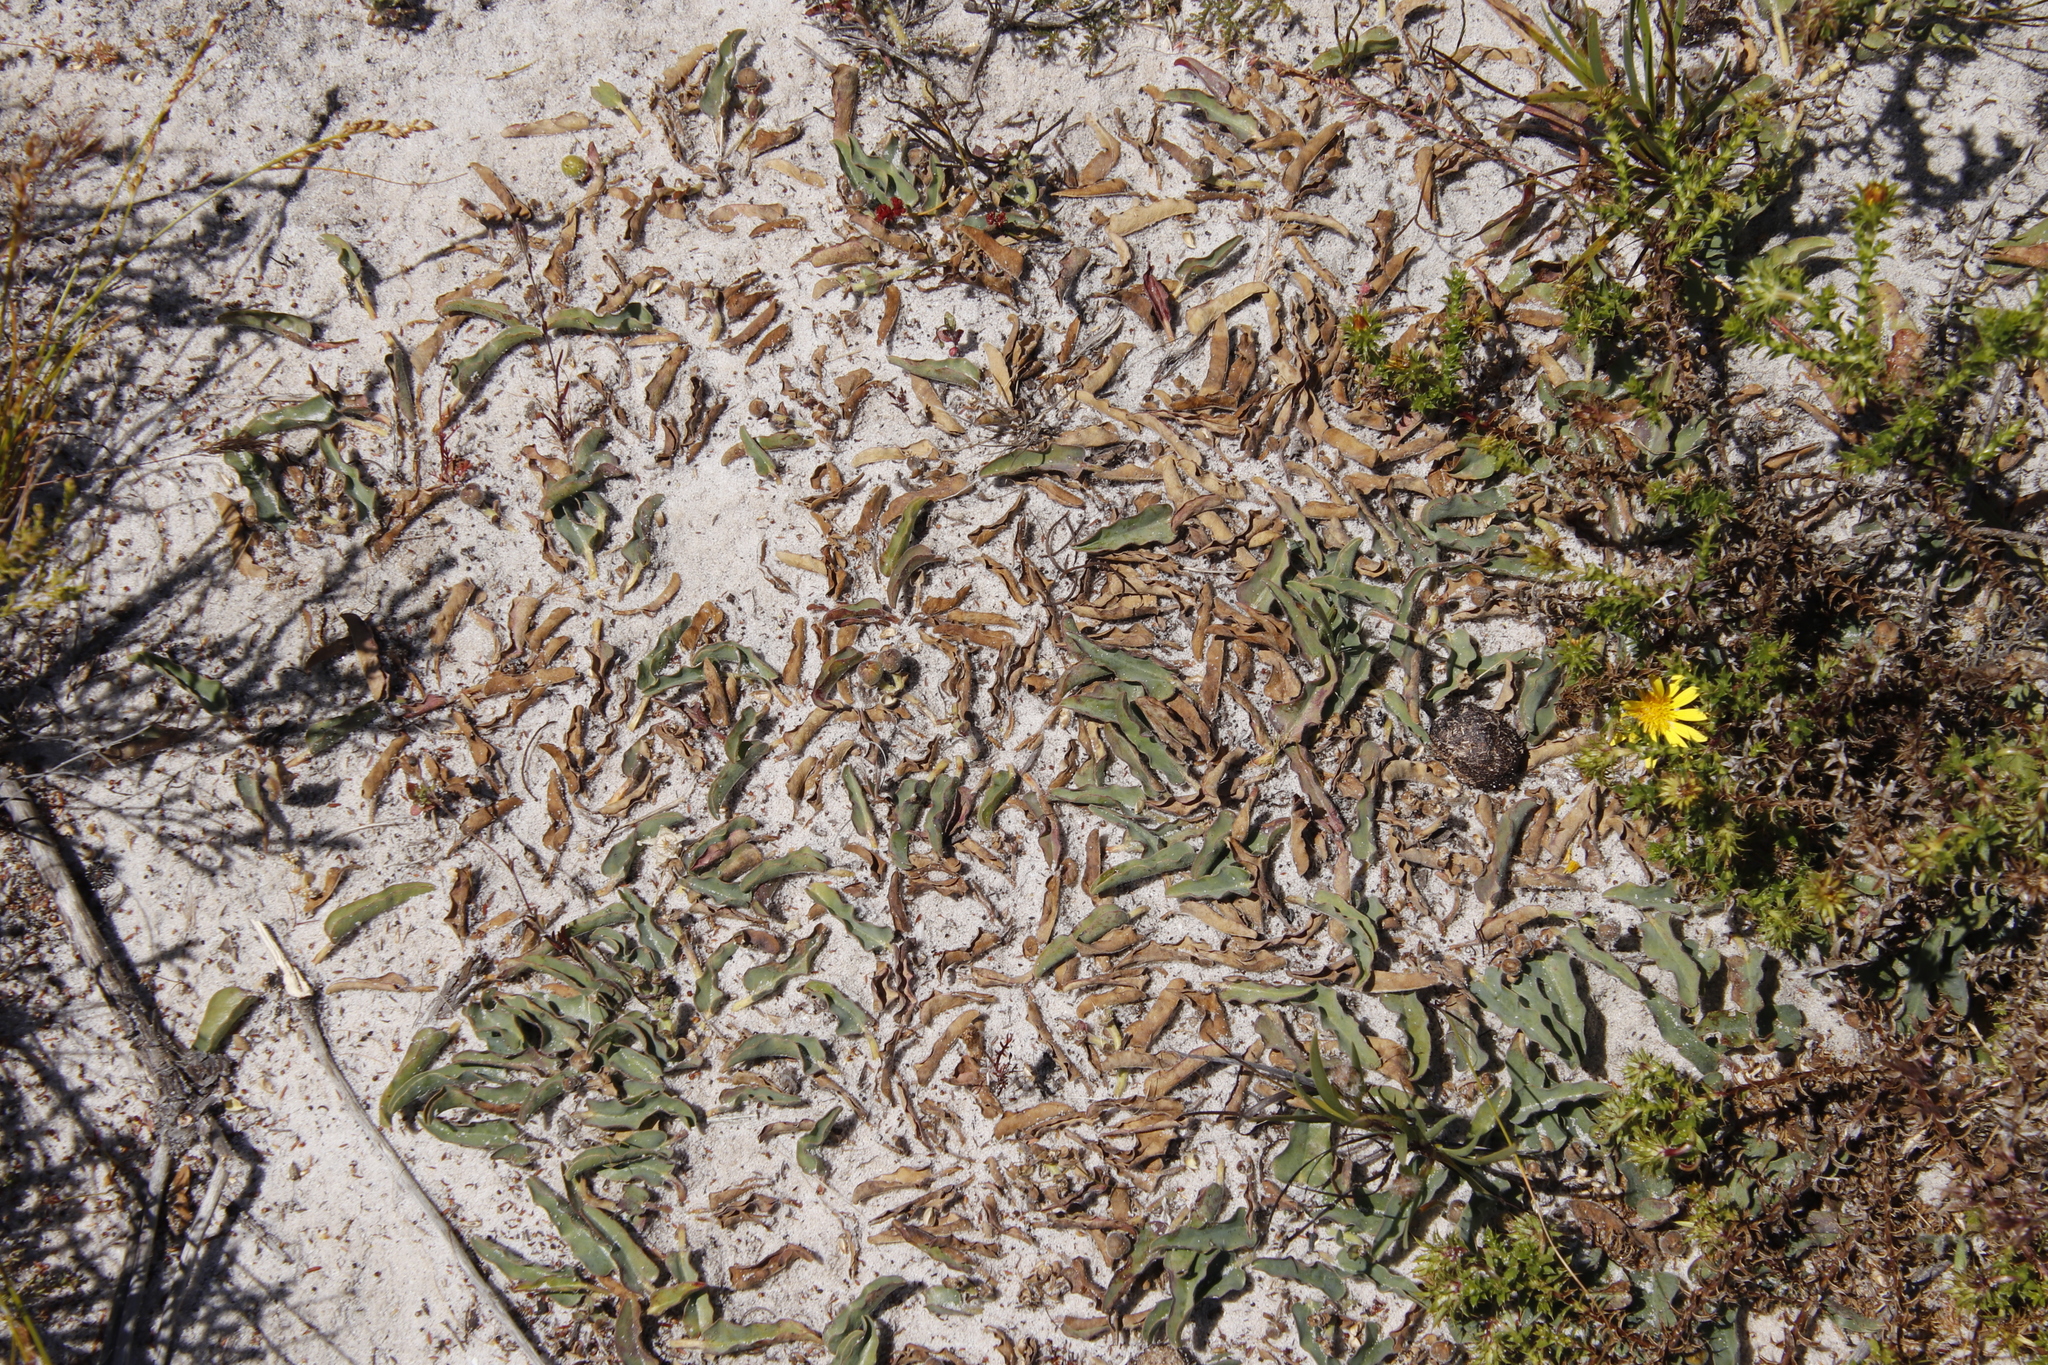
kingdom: Plantae
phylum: Tracheophyta
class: Magnoliopsida
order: Malpighiales
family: Euphorbiaceae
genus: Euphorbia
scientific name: Euphorbia tuberosa
